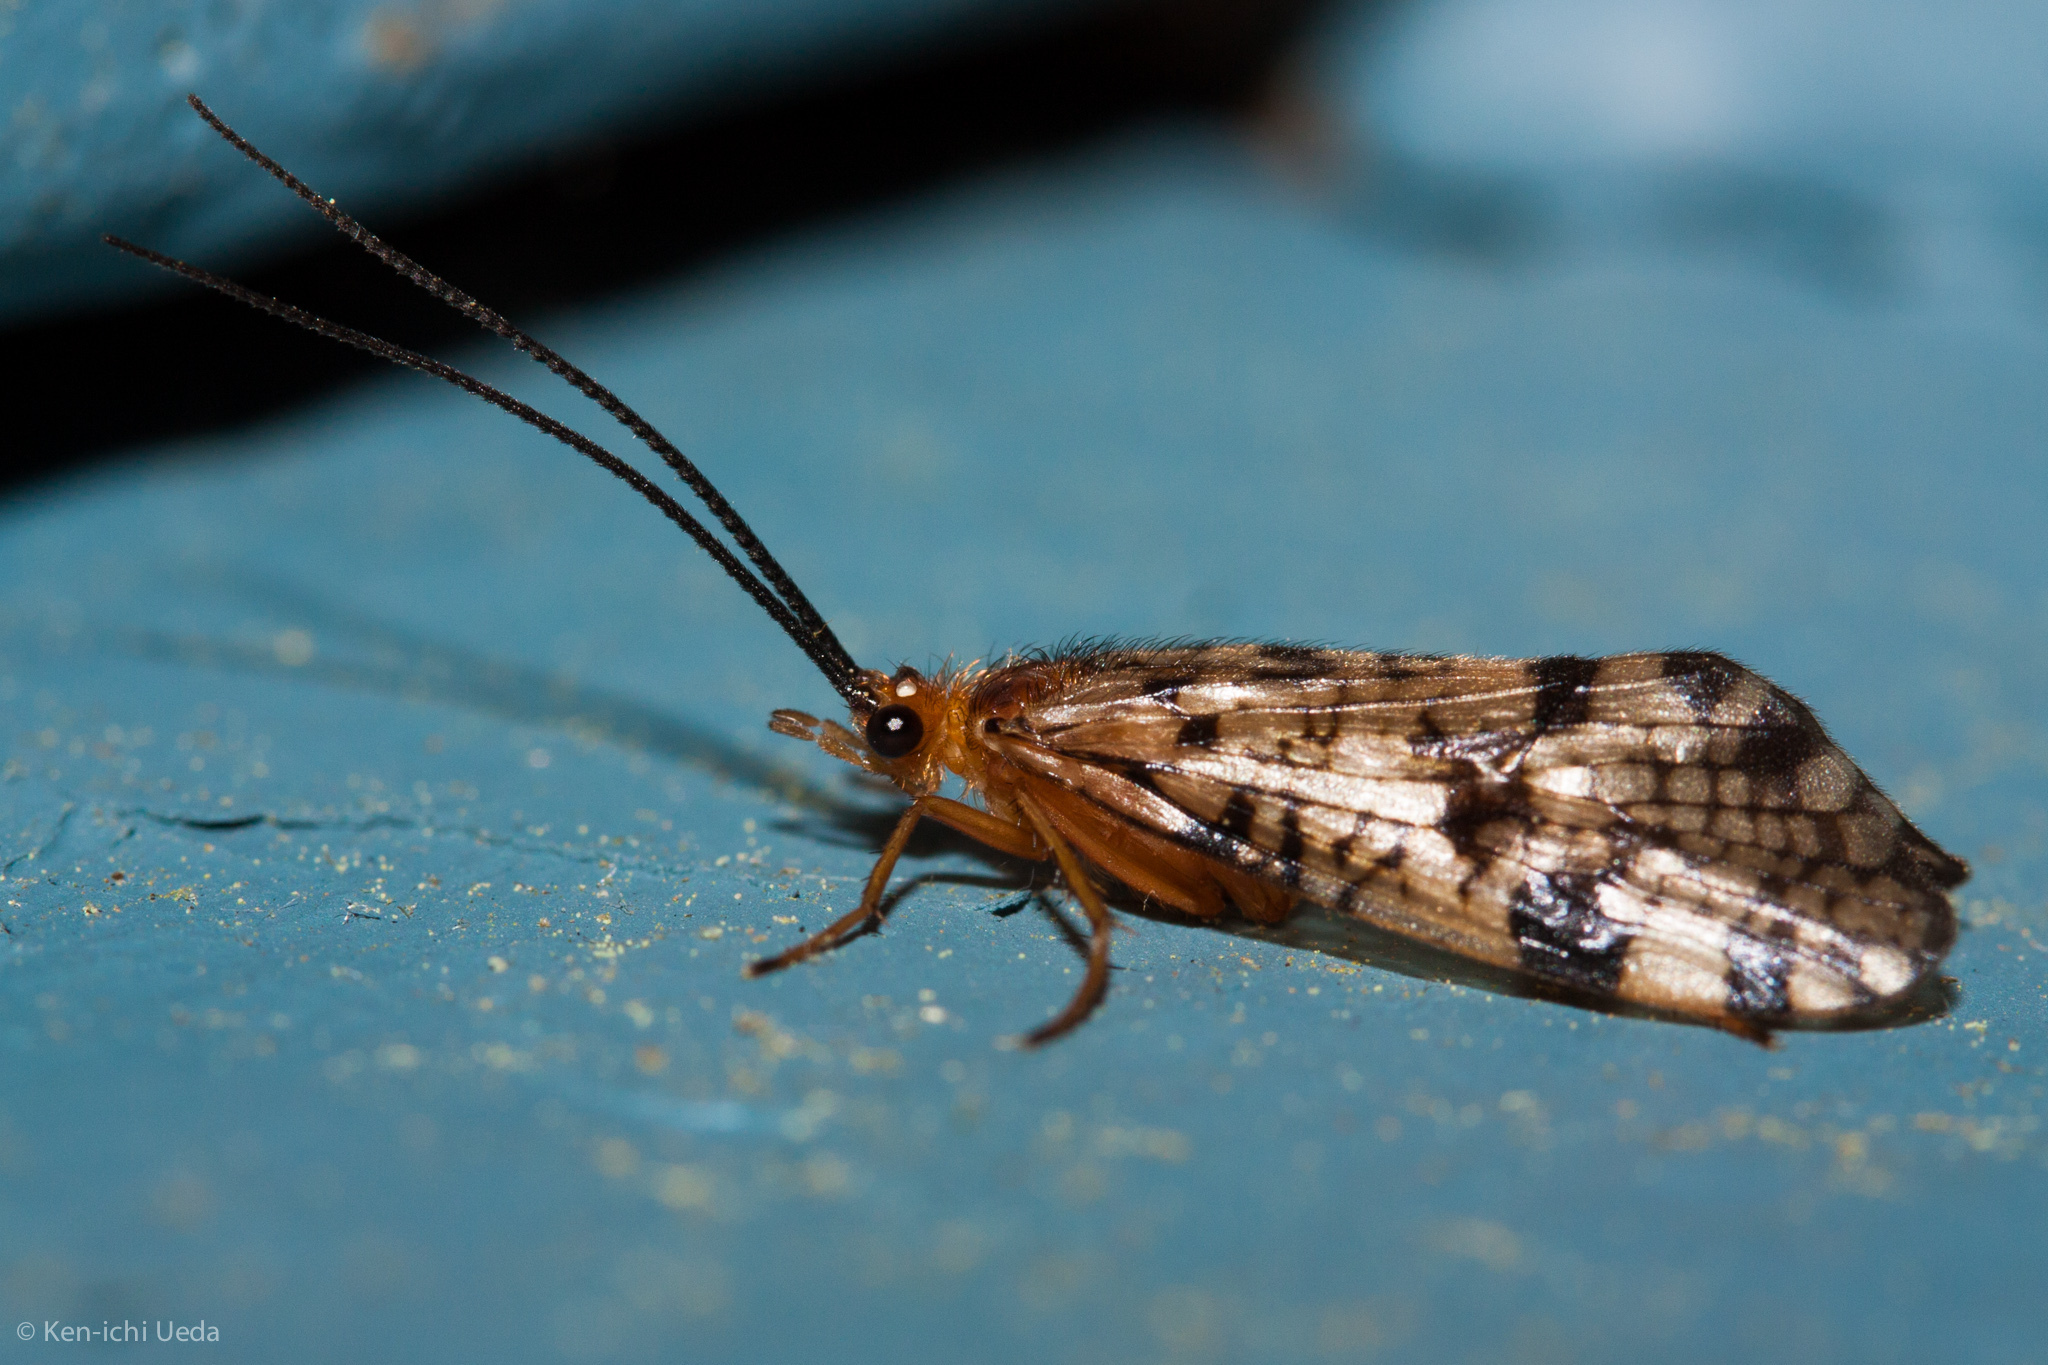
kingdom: Animalia
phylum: Arthropoda
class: Insecta
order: Trichoptera
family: Phryganeidae
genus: Banksiola
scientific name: Banksiola dossuaria
